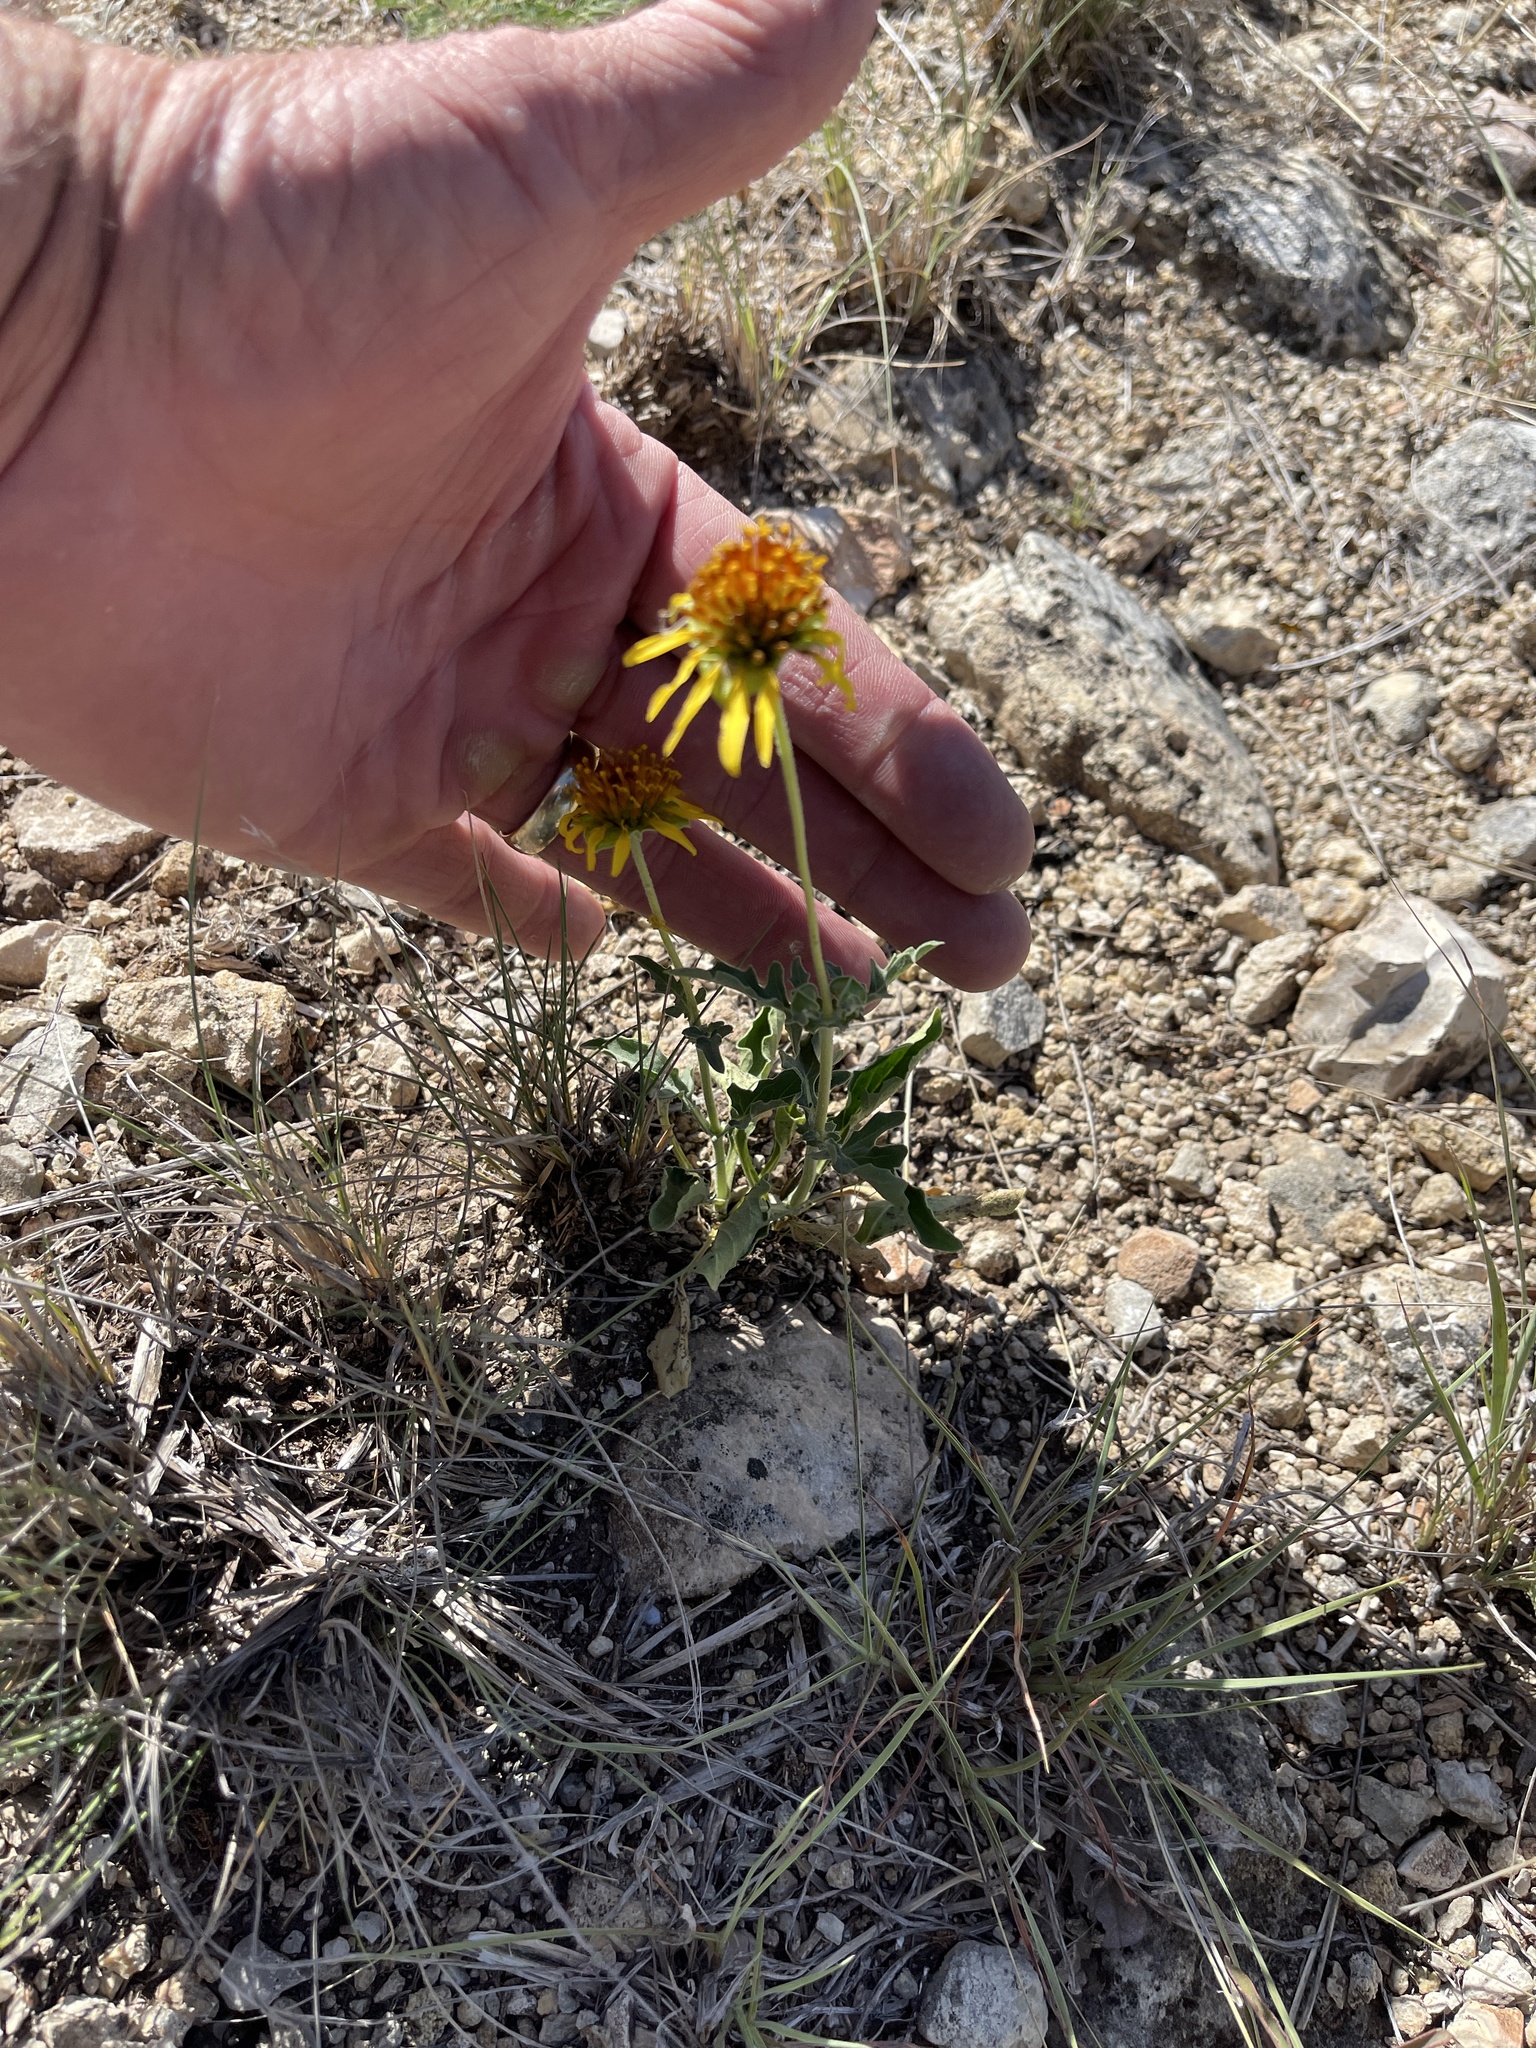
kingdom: Plantae
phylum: Tracheophyta
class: Magnoliopsida
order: Asterales
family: Asteraceae
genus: Tetragonotheca
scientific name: Tetragonotheca texana
